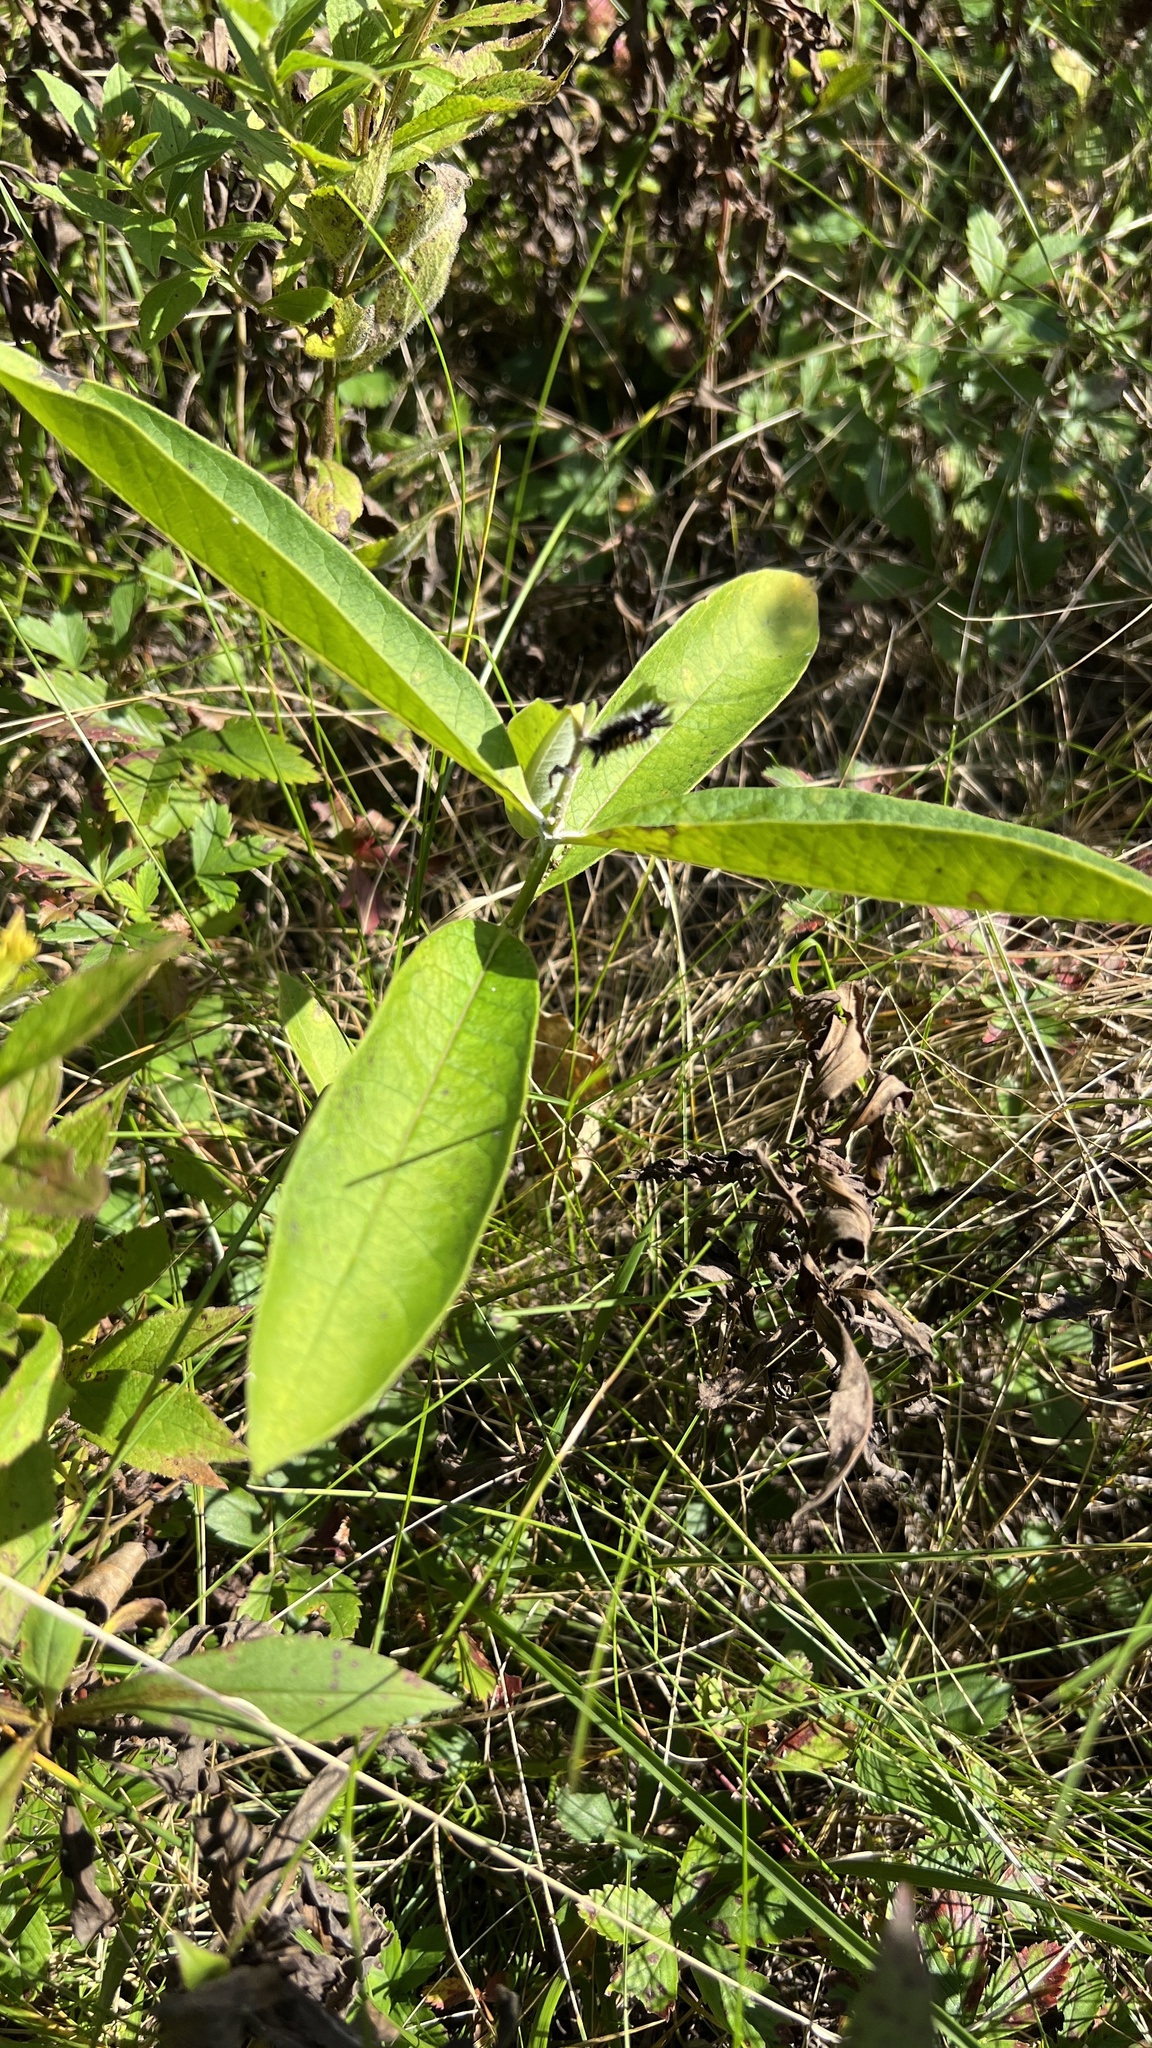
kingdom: Plantae
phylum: Tracheophyta
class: Magnoliopsida
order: Gentianales
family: Apocynaceae
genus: Asclepias
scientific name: Asclepias syriaca
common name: Common milkweed
